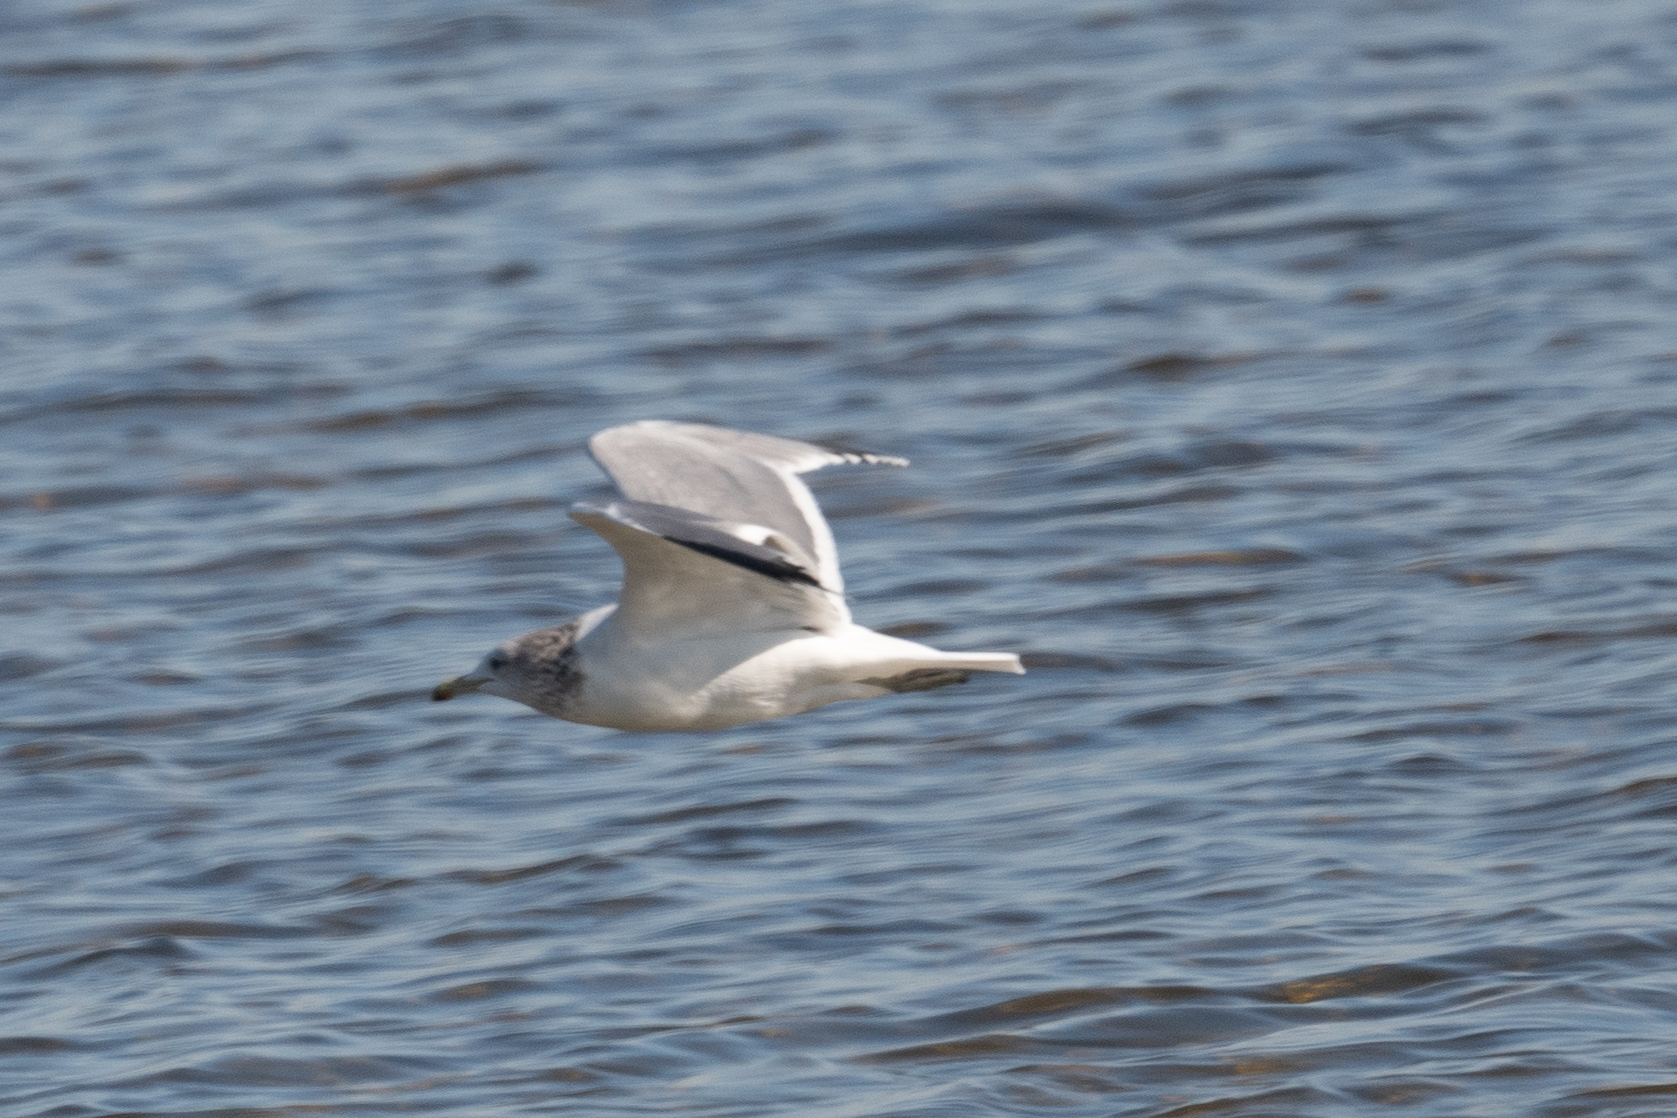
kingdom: Animalia
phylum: Chordata
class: Aves
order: Charadriiformes
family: Laridae
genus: Larus
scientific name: Larus californicus
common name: California gull
